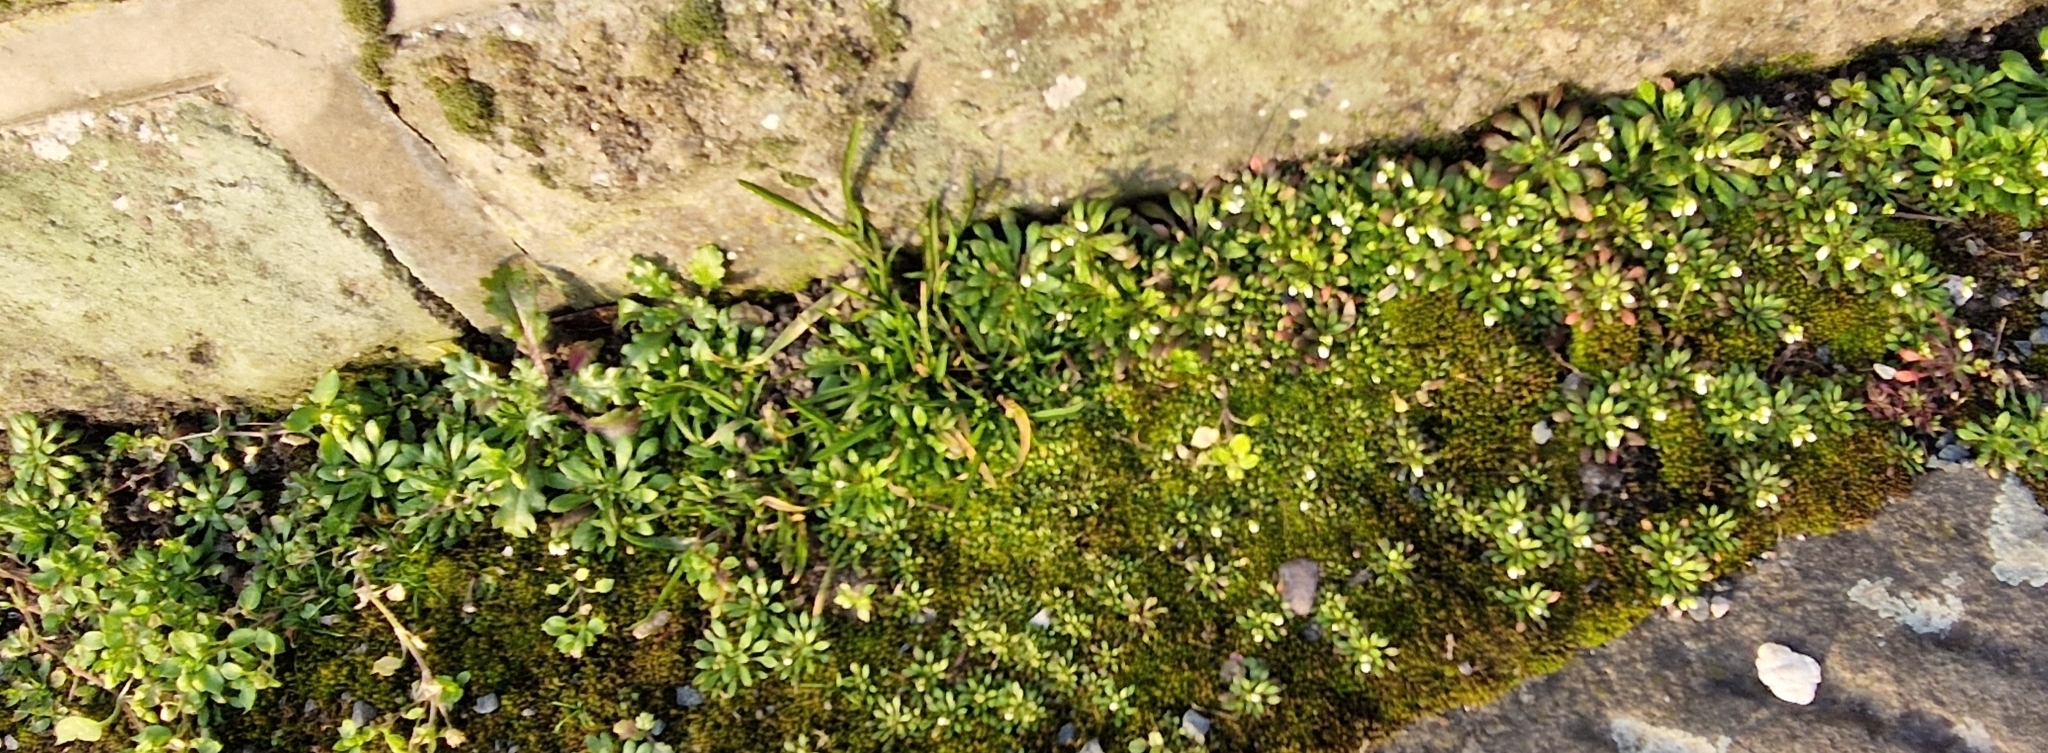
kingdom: Plantae
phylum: Tracheophyta
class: Magnoliopsida
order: Brassicales
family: Brassicaceae
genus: Draba
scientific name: Draba verna
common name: Spring draba
